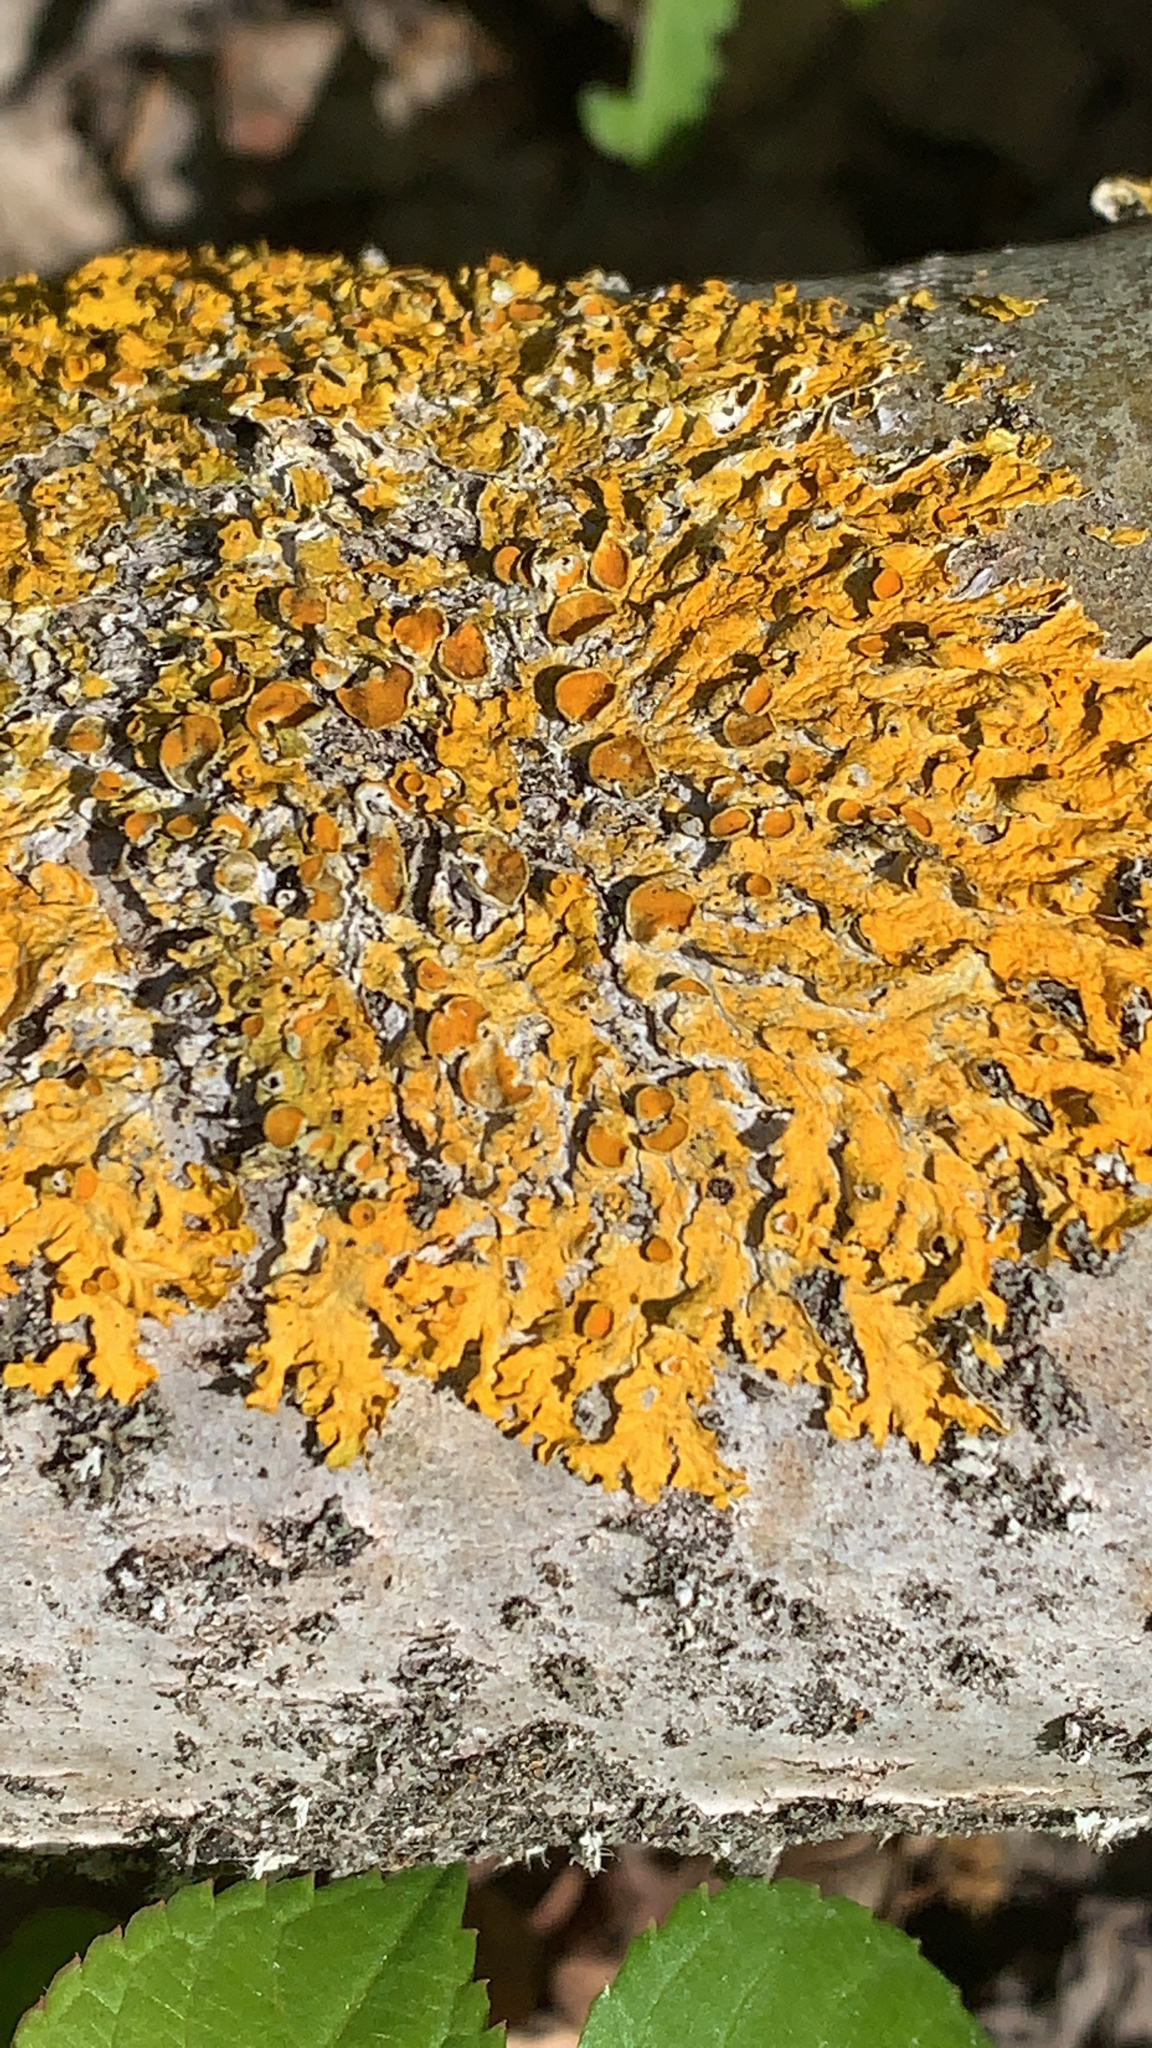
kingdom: Fungi
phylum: Ascomycota
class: Lecanoromycetes
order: Teloschistales
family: Teloschistaceae
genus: Xanthoria
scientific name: Xanthoria parietina
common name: Common orange lichen
